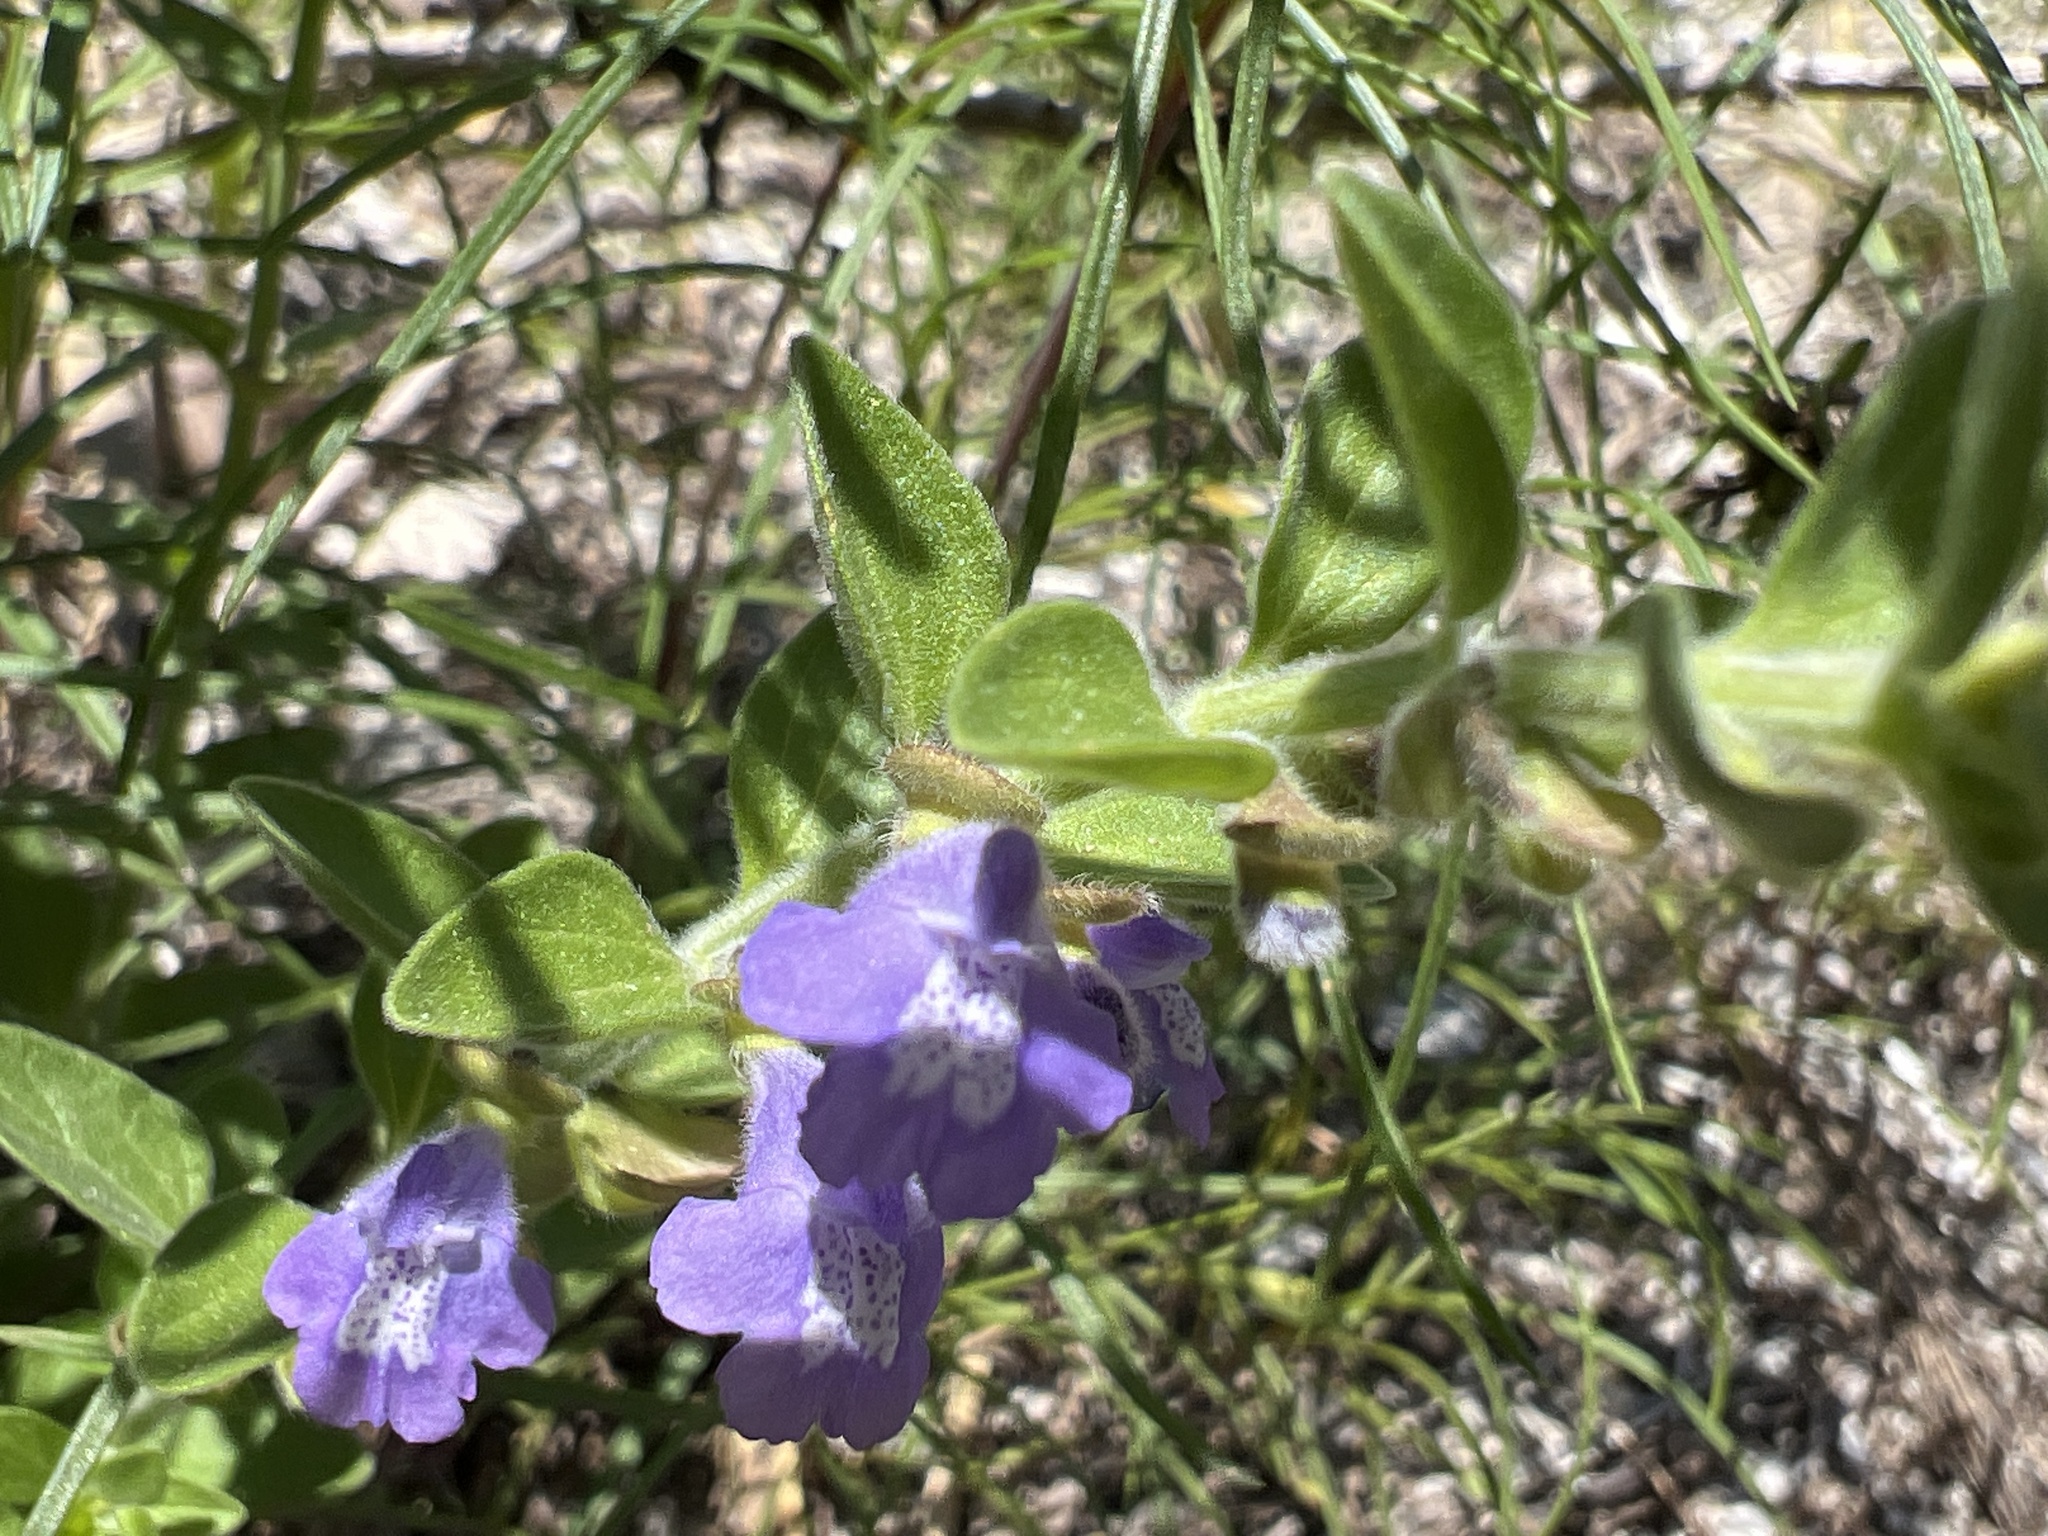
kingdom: Plantae
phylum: Tracheophyta
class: Magnoliopsida
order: Lamiales
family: Lamiaceae
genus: Scutellaria
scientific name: Scutellaria drummondii
